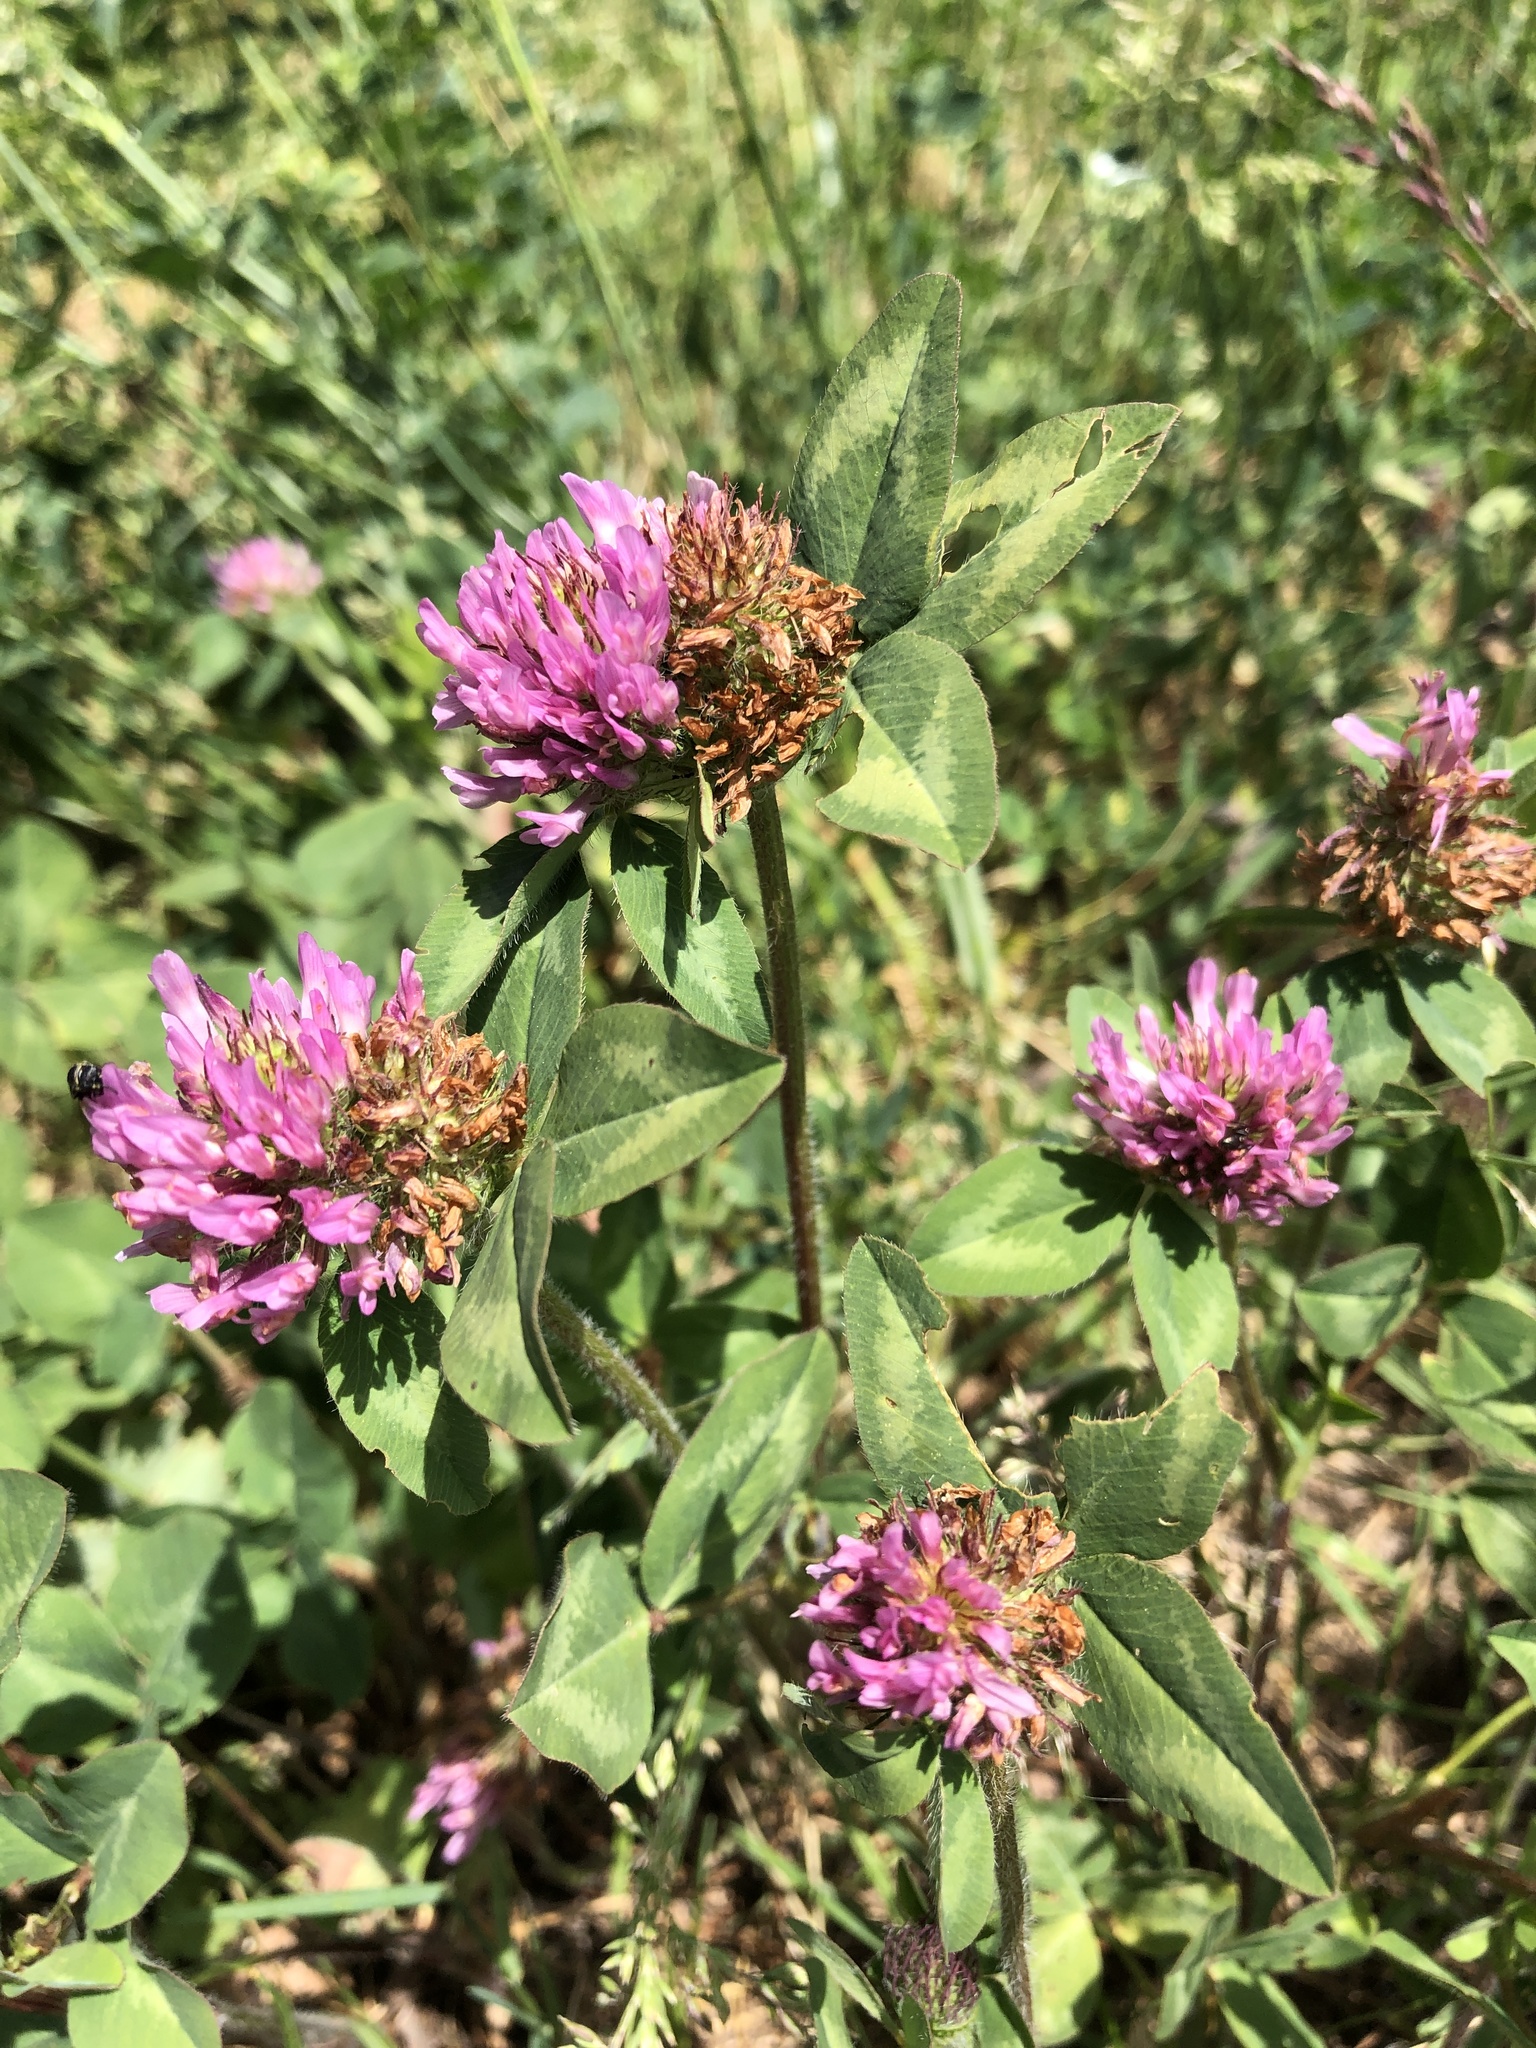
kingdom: Plantae
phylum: Tracheophyta
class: Magnoliopsida
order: Fabales
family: Fabaceae
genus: Trifolium
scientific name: Trifolium pratense
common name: Red clover
